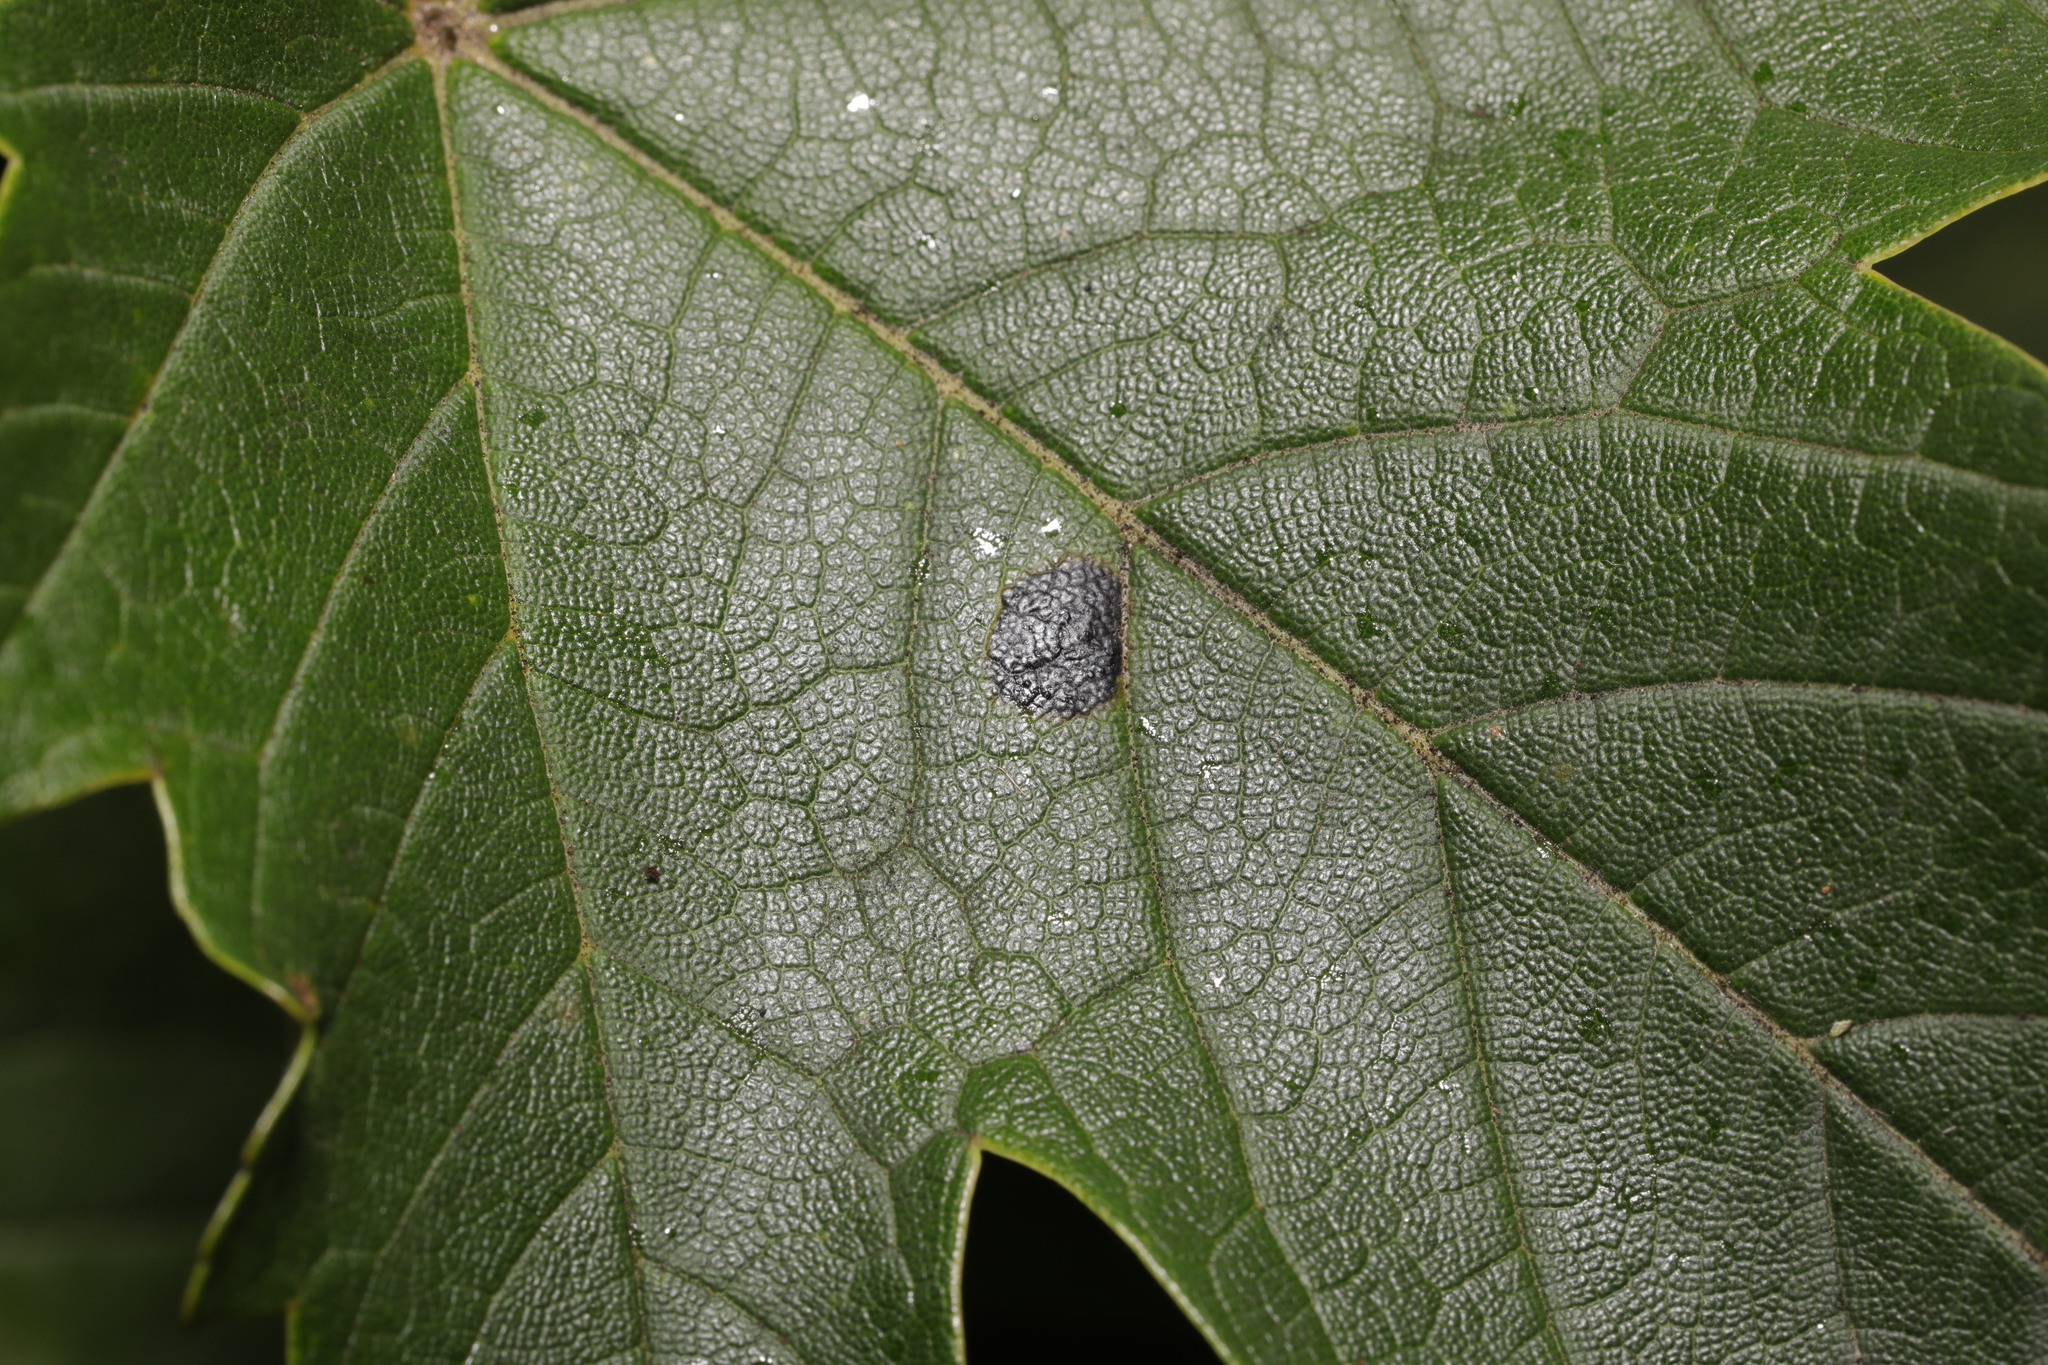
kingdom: Fungi
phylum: Ascomycota
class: Leotiomycetes
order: Rhytismatales
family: Rhytismataceae
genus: Rhytisma
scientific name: Rhytisma acerinum
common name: European tar spot
